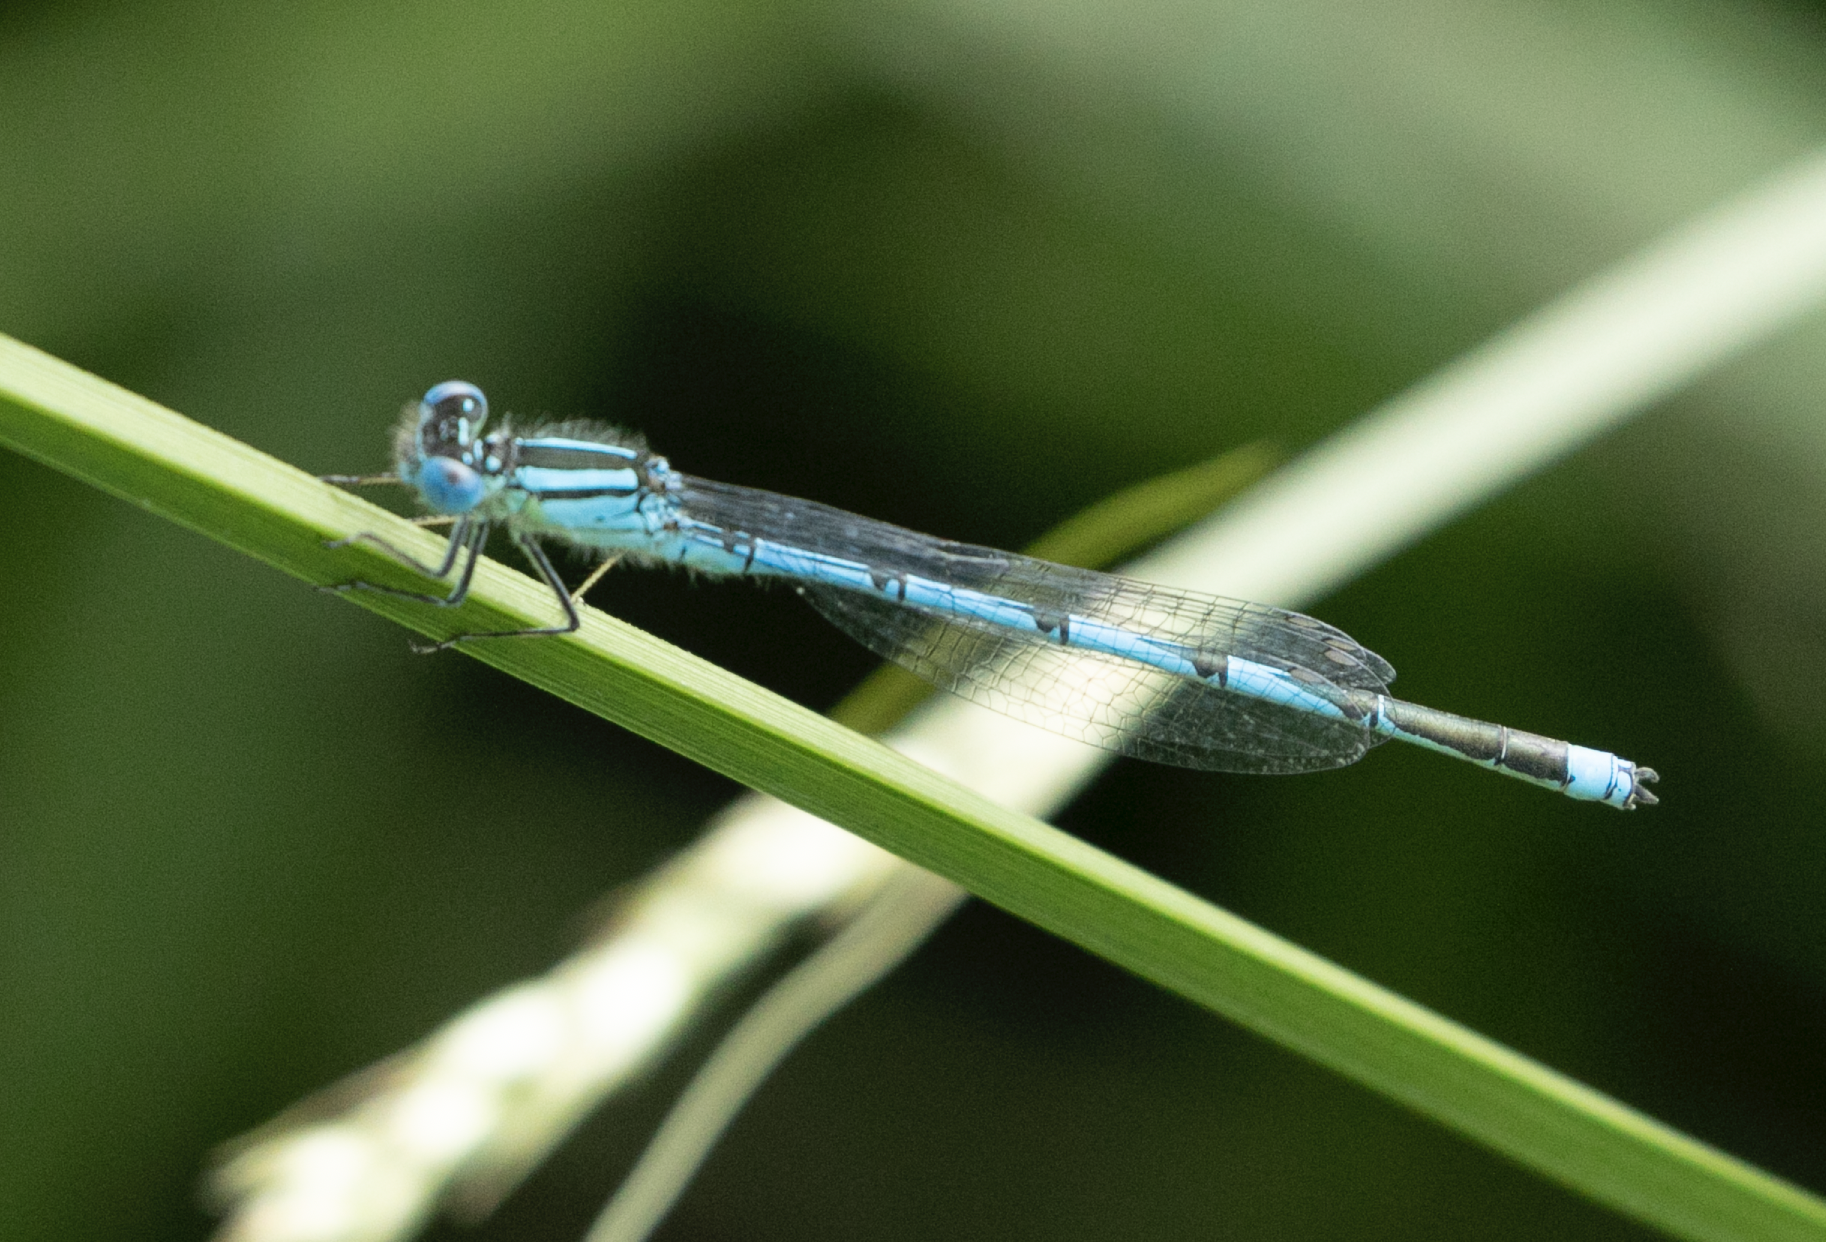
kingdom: Animalia
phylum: Arthropoda
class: Insecta
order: Odonata
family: Coenagrionidae
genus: Erythromma
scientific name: Erythromma lindenii
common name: Blue-eye
